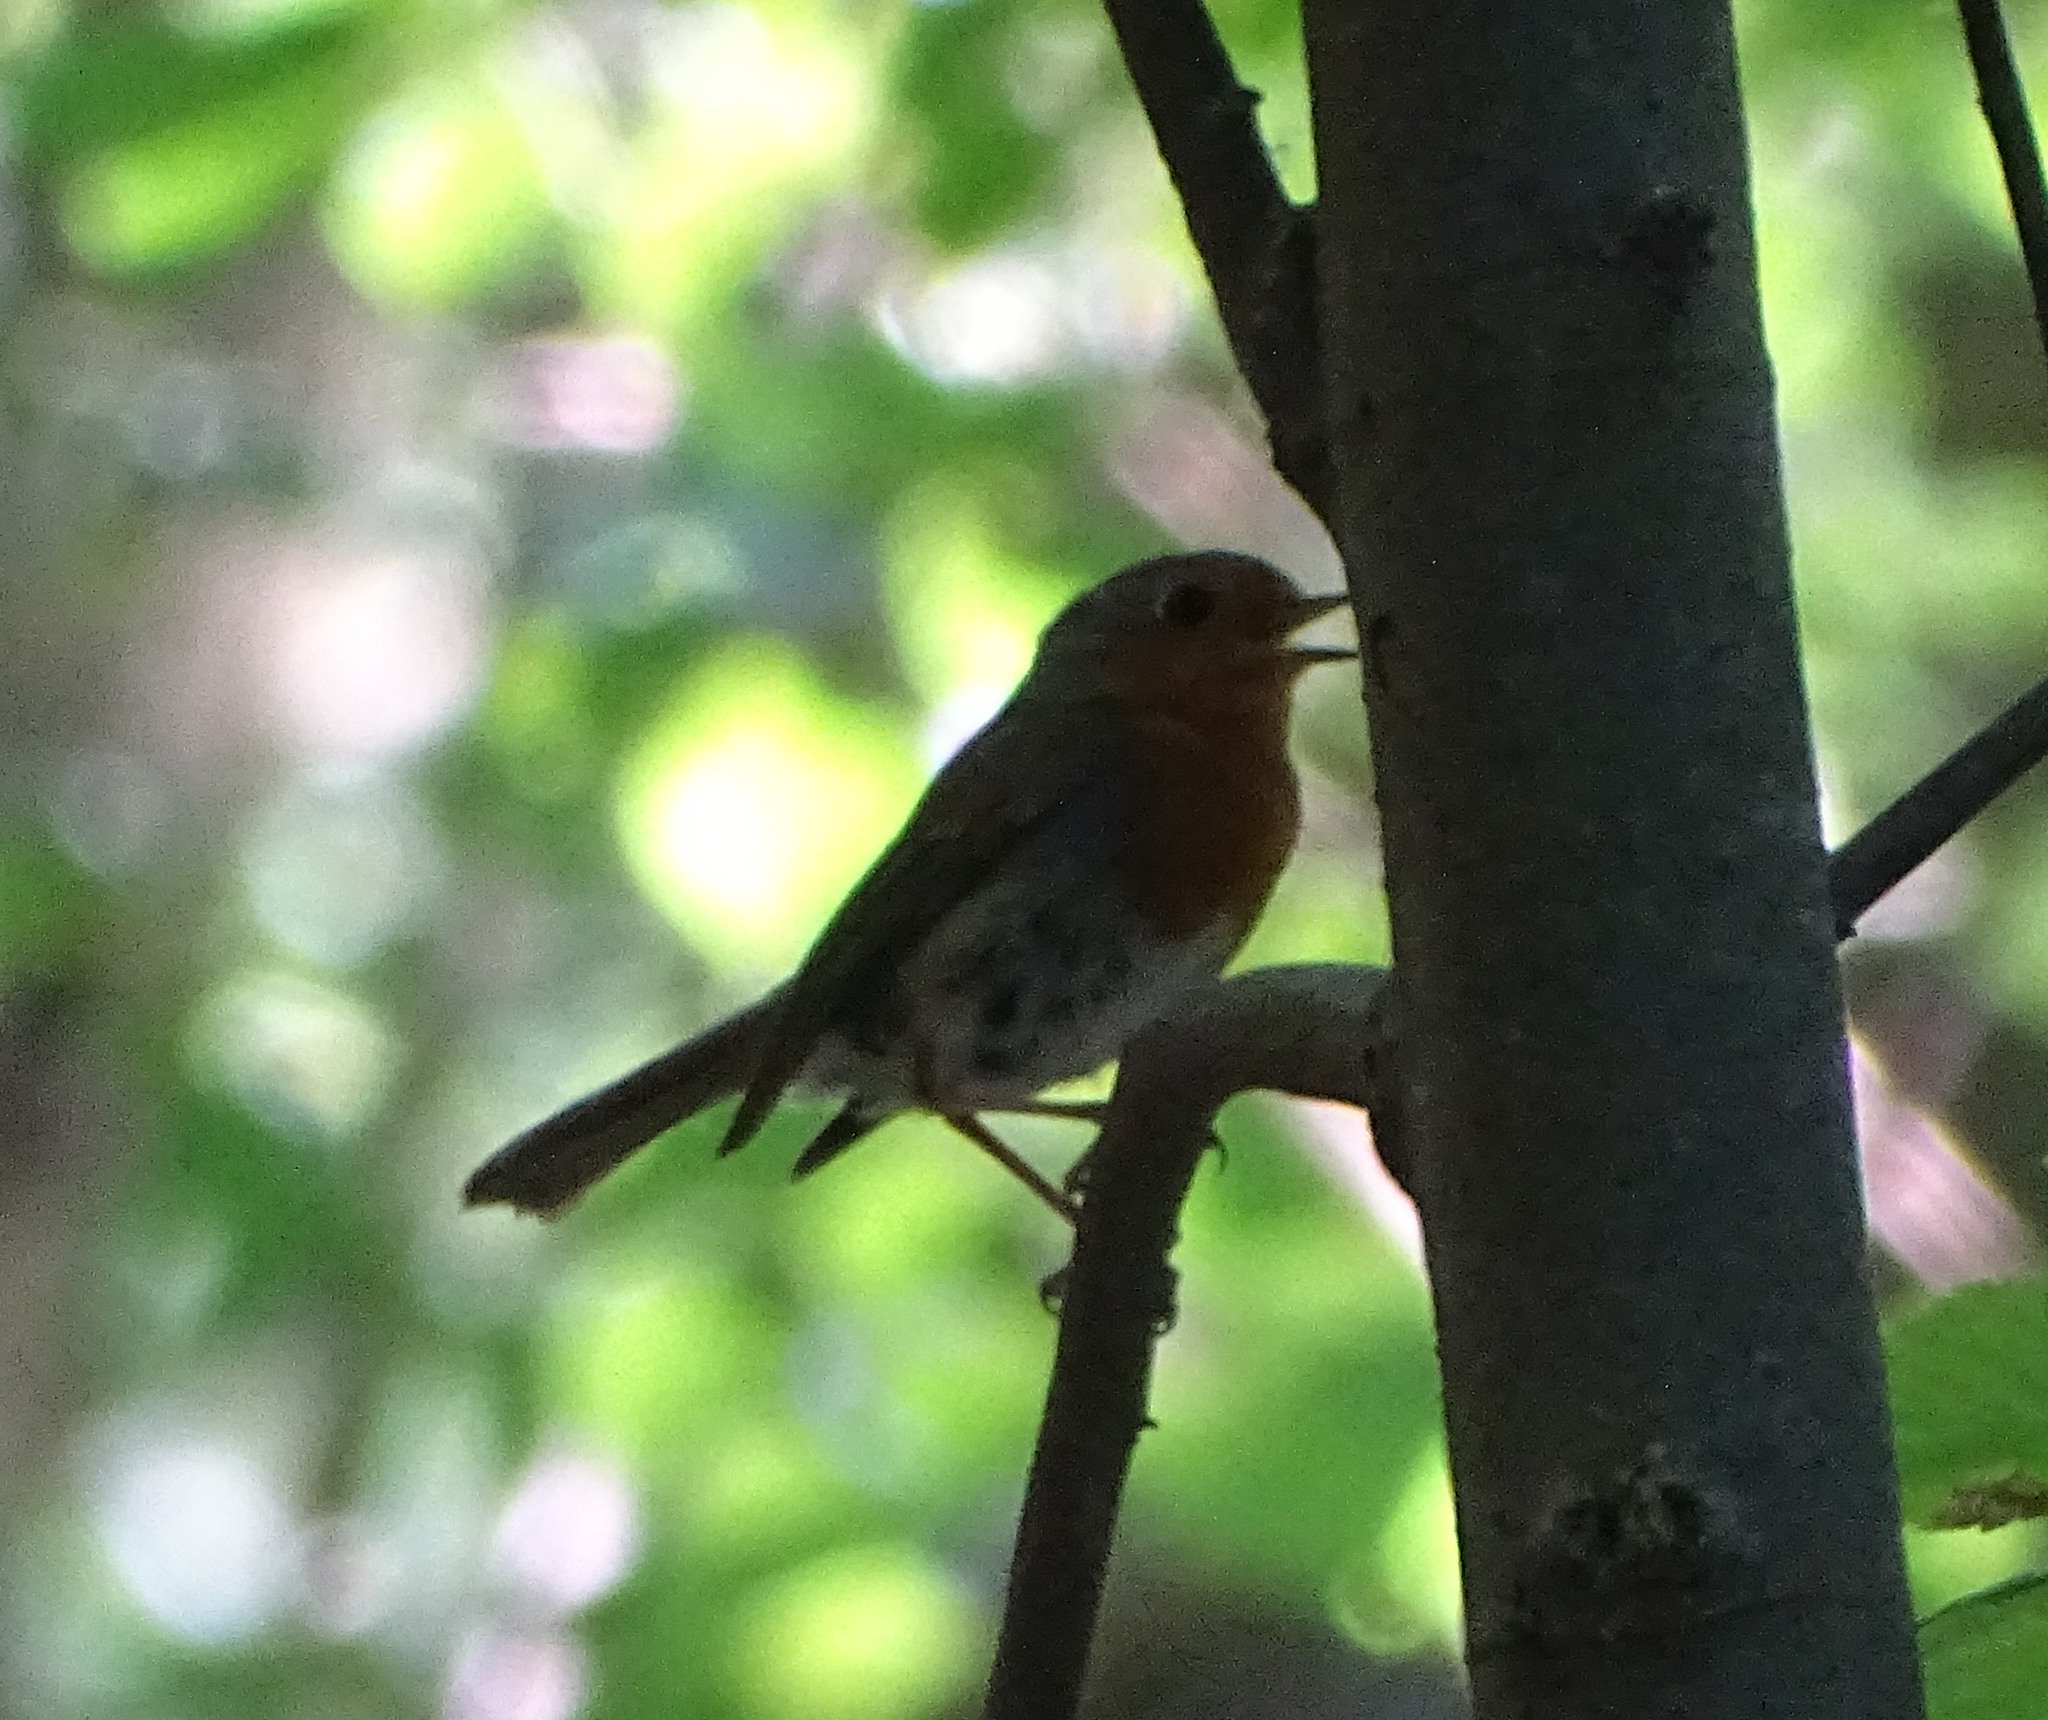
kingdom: Animalia
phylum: Chordata
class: Aves
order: Passeriformes
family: Muscicapidae
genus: Erithacus
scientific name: Erithacus rubecula
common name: European robin
